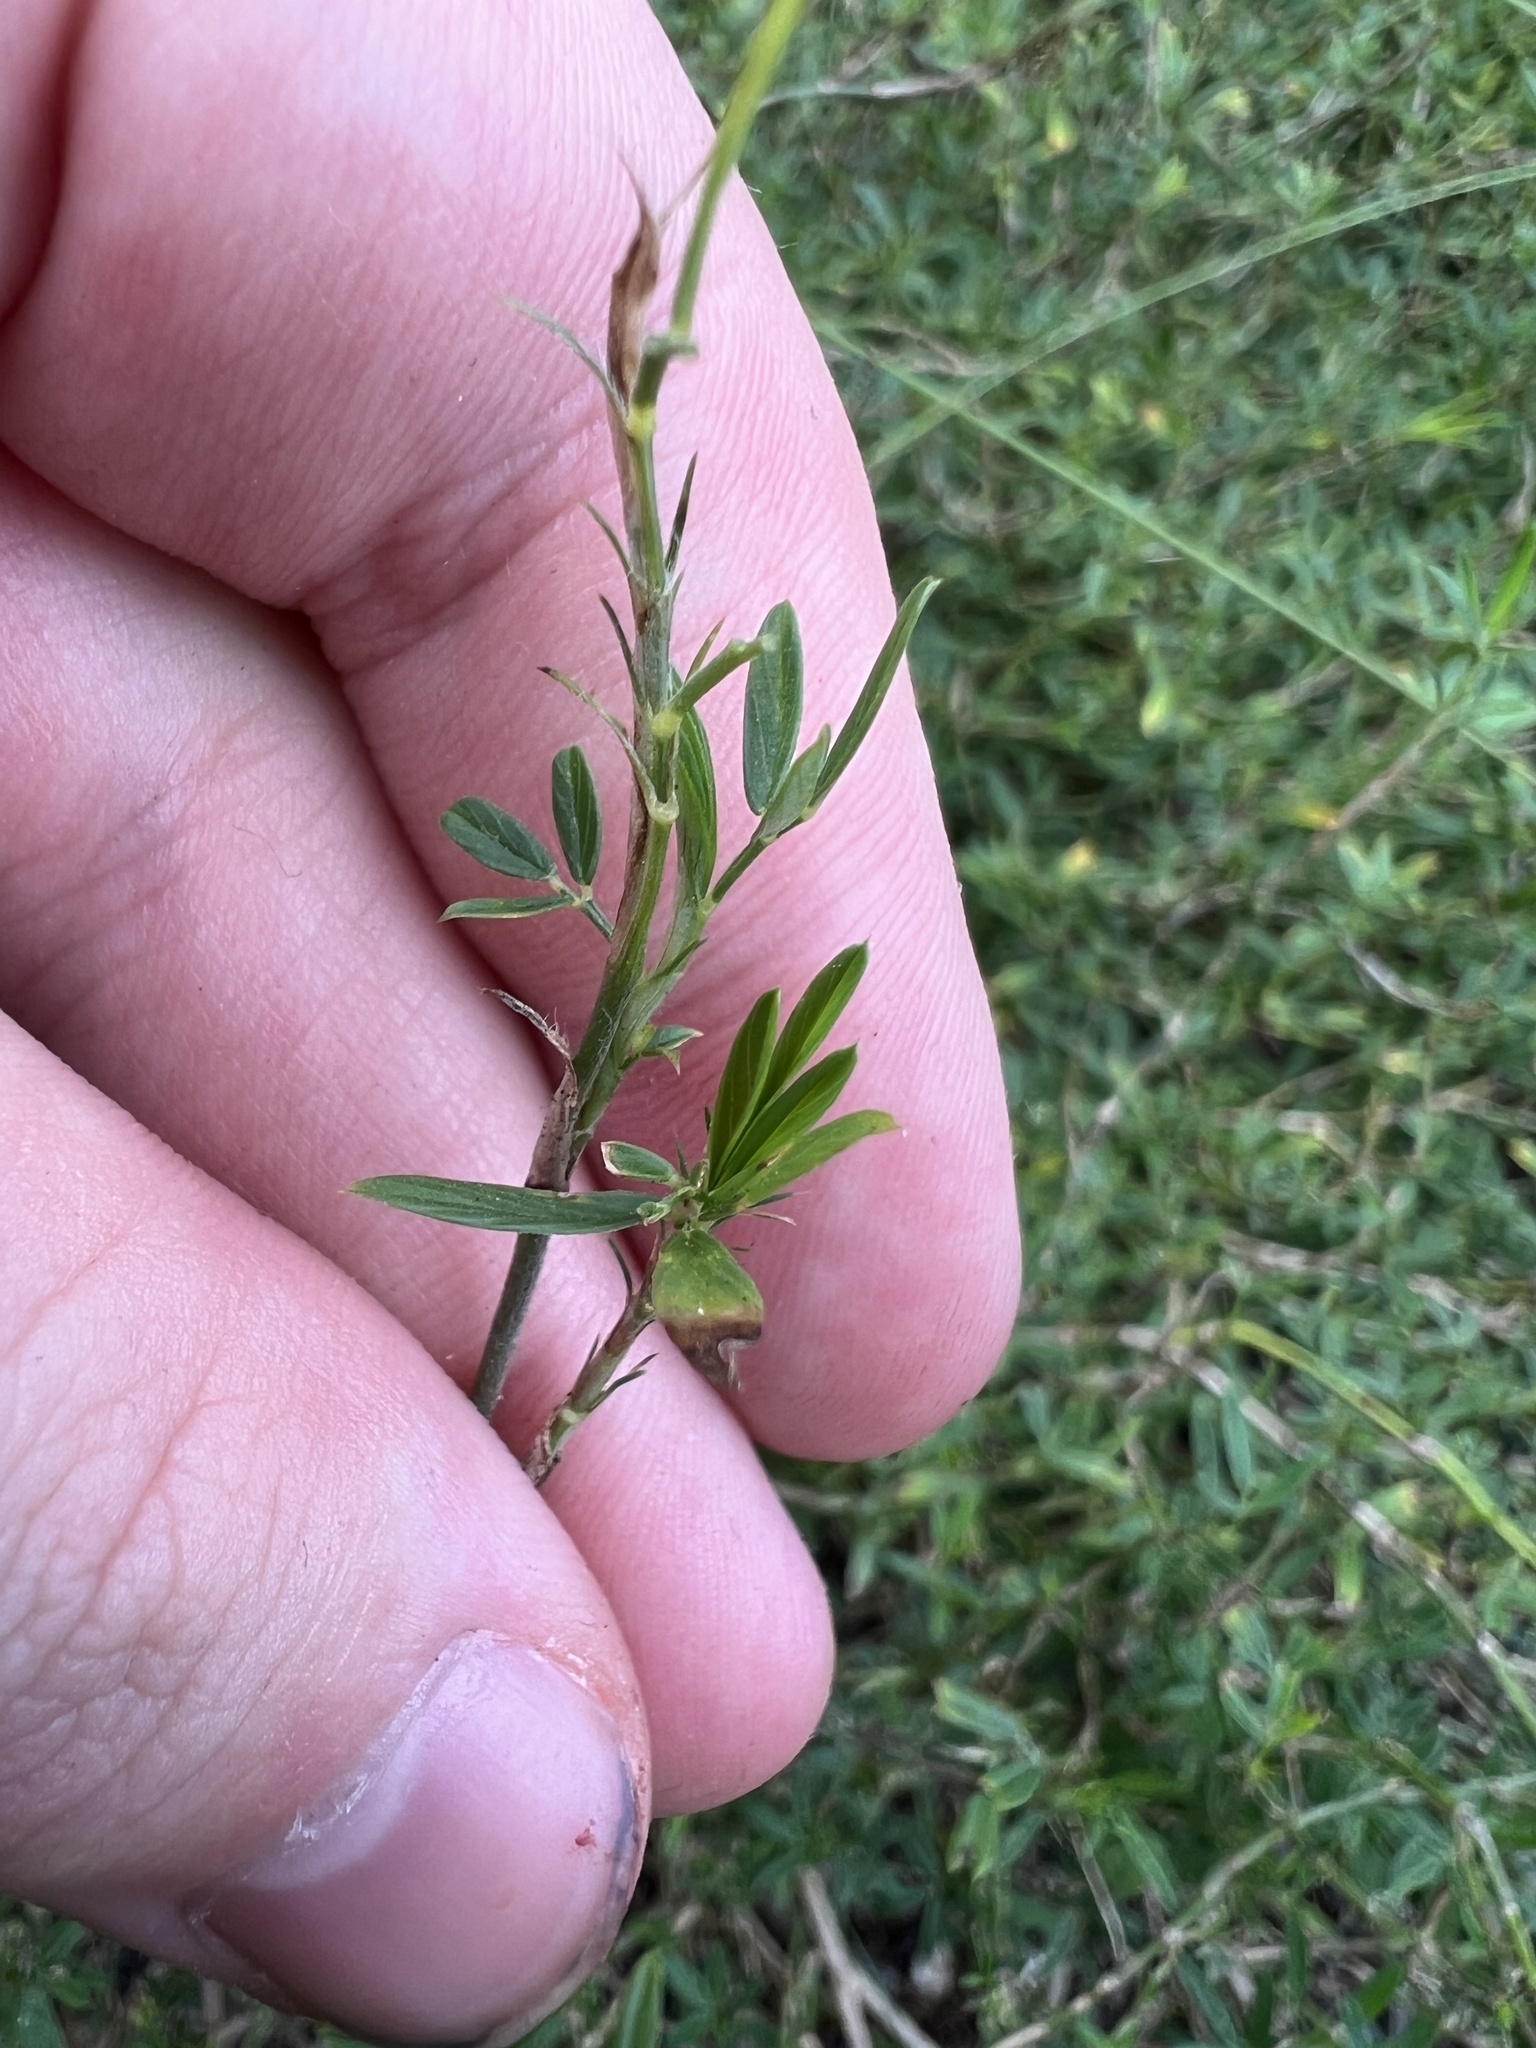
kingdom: Plantae
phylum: Tracheophyta
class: Magnoliopsida
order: Fabales
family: Fabaceae
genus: Stylosanthes
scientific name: Stylosanthes hamata
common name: Cheesytoes
